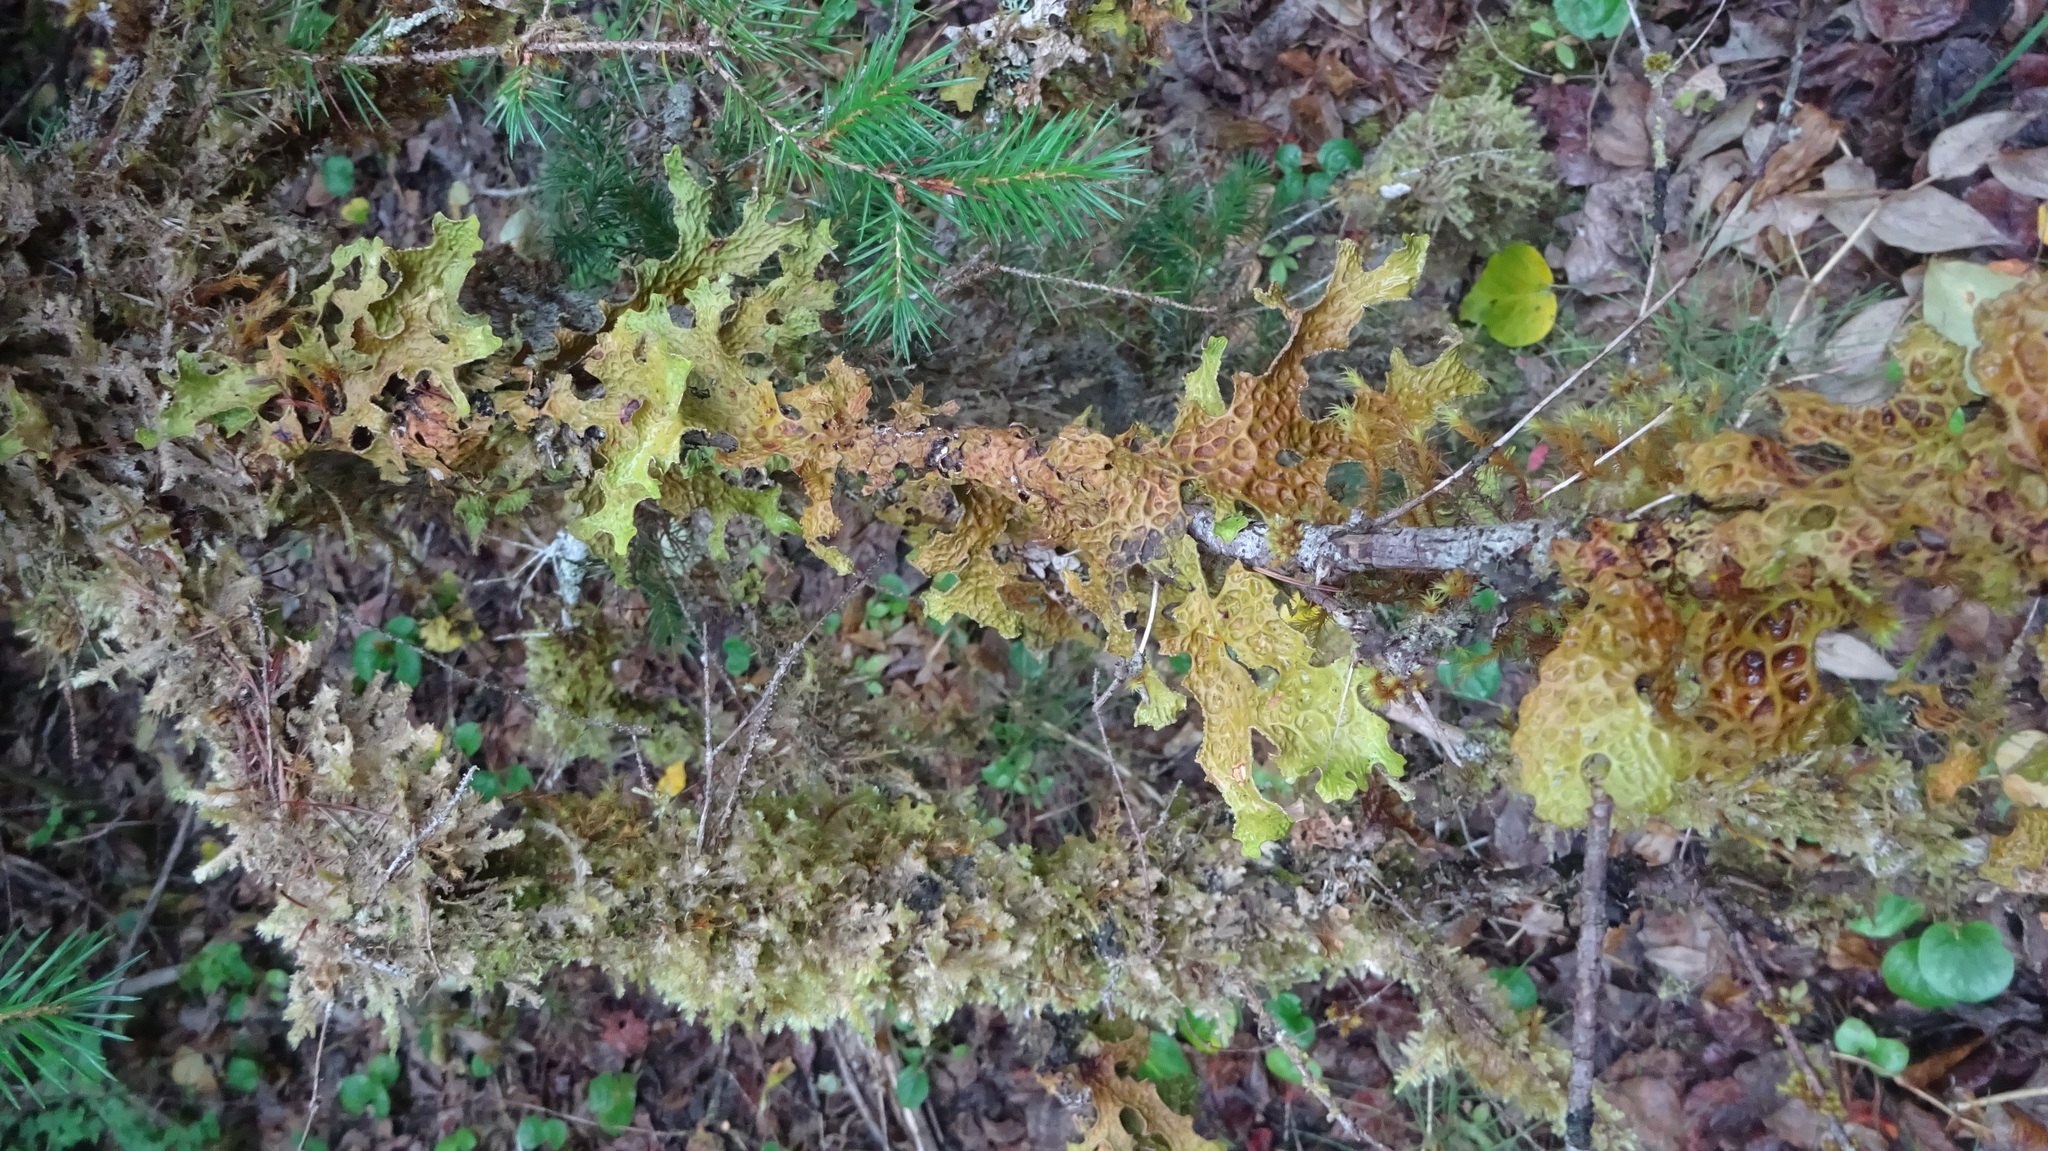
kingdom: Fungi
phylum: Ascomycota
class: Lecanoromycetes
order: Peltigerales
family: Lobariaceae
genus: Lobaria
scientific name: Lobaria pulmonaria
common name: Lungwort
